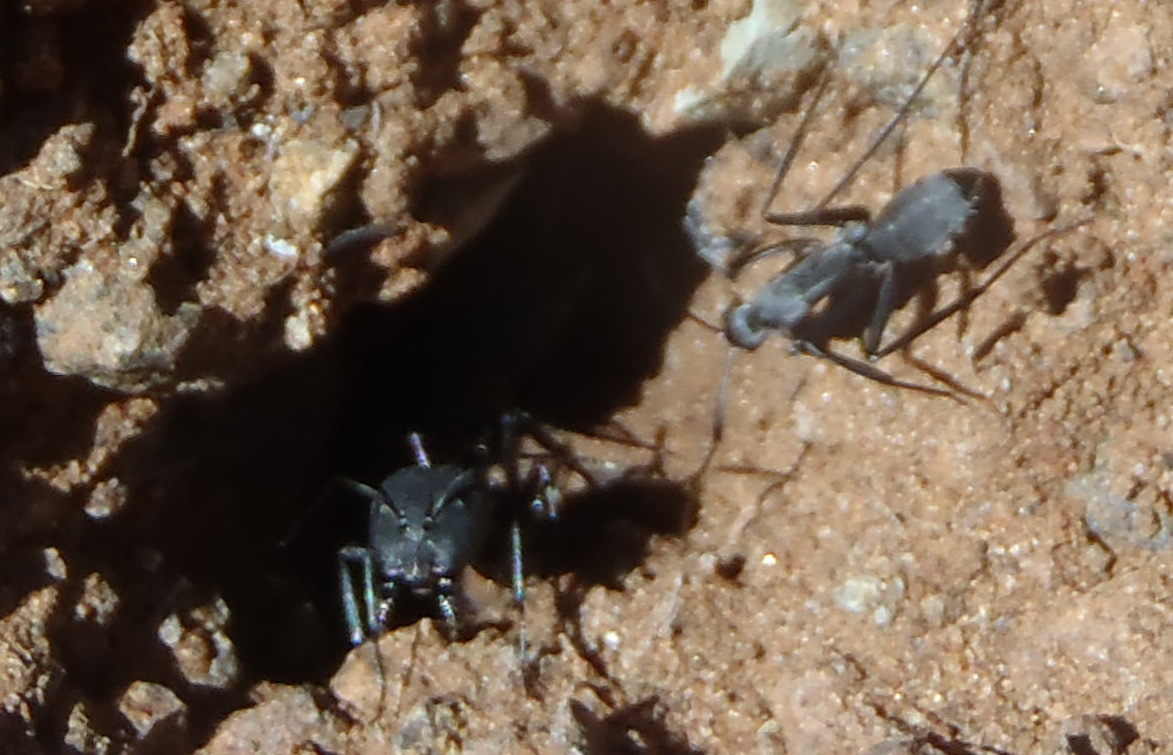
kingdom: Animalia
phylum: Arthropoda
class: Insecta
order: Hymenoptera
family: Formicidae
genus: Camponotus
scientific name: Camponotus petersii
